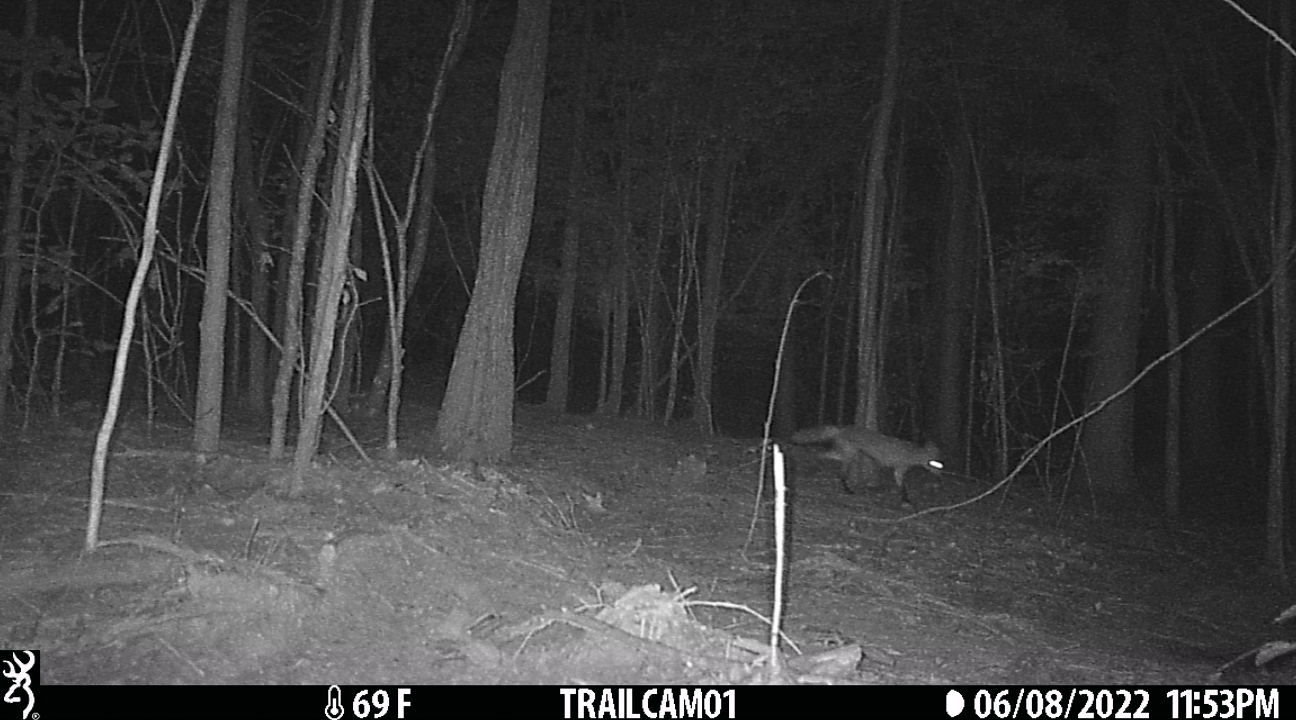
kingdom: Animalia
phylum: Chordata
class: Mammalia
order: Carnivora
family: Canidae
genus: Vulpes
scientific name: Vulpes vulpes
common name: Red fox
